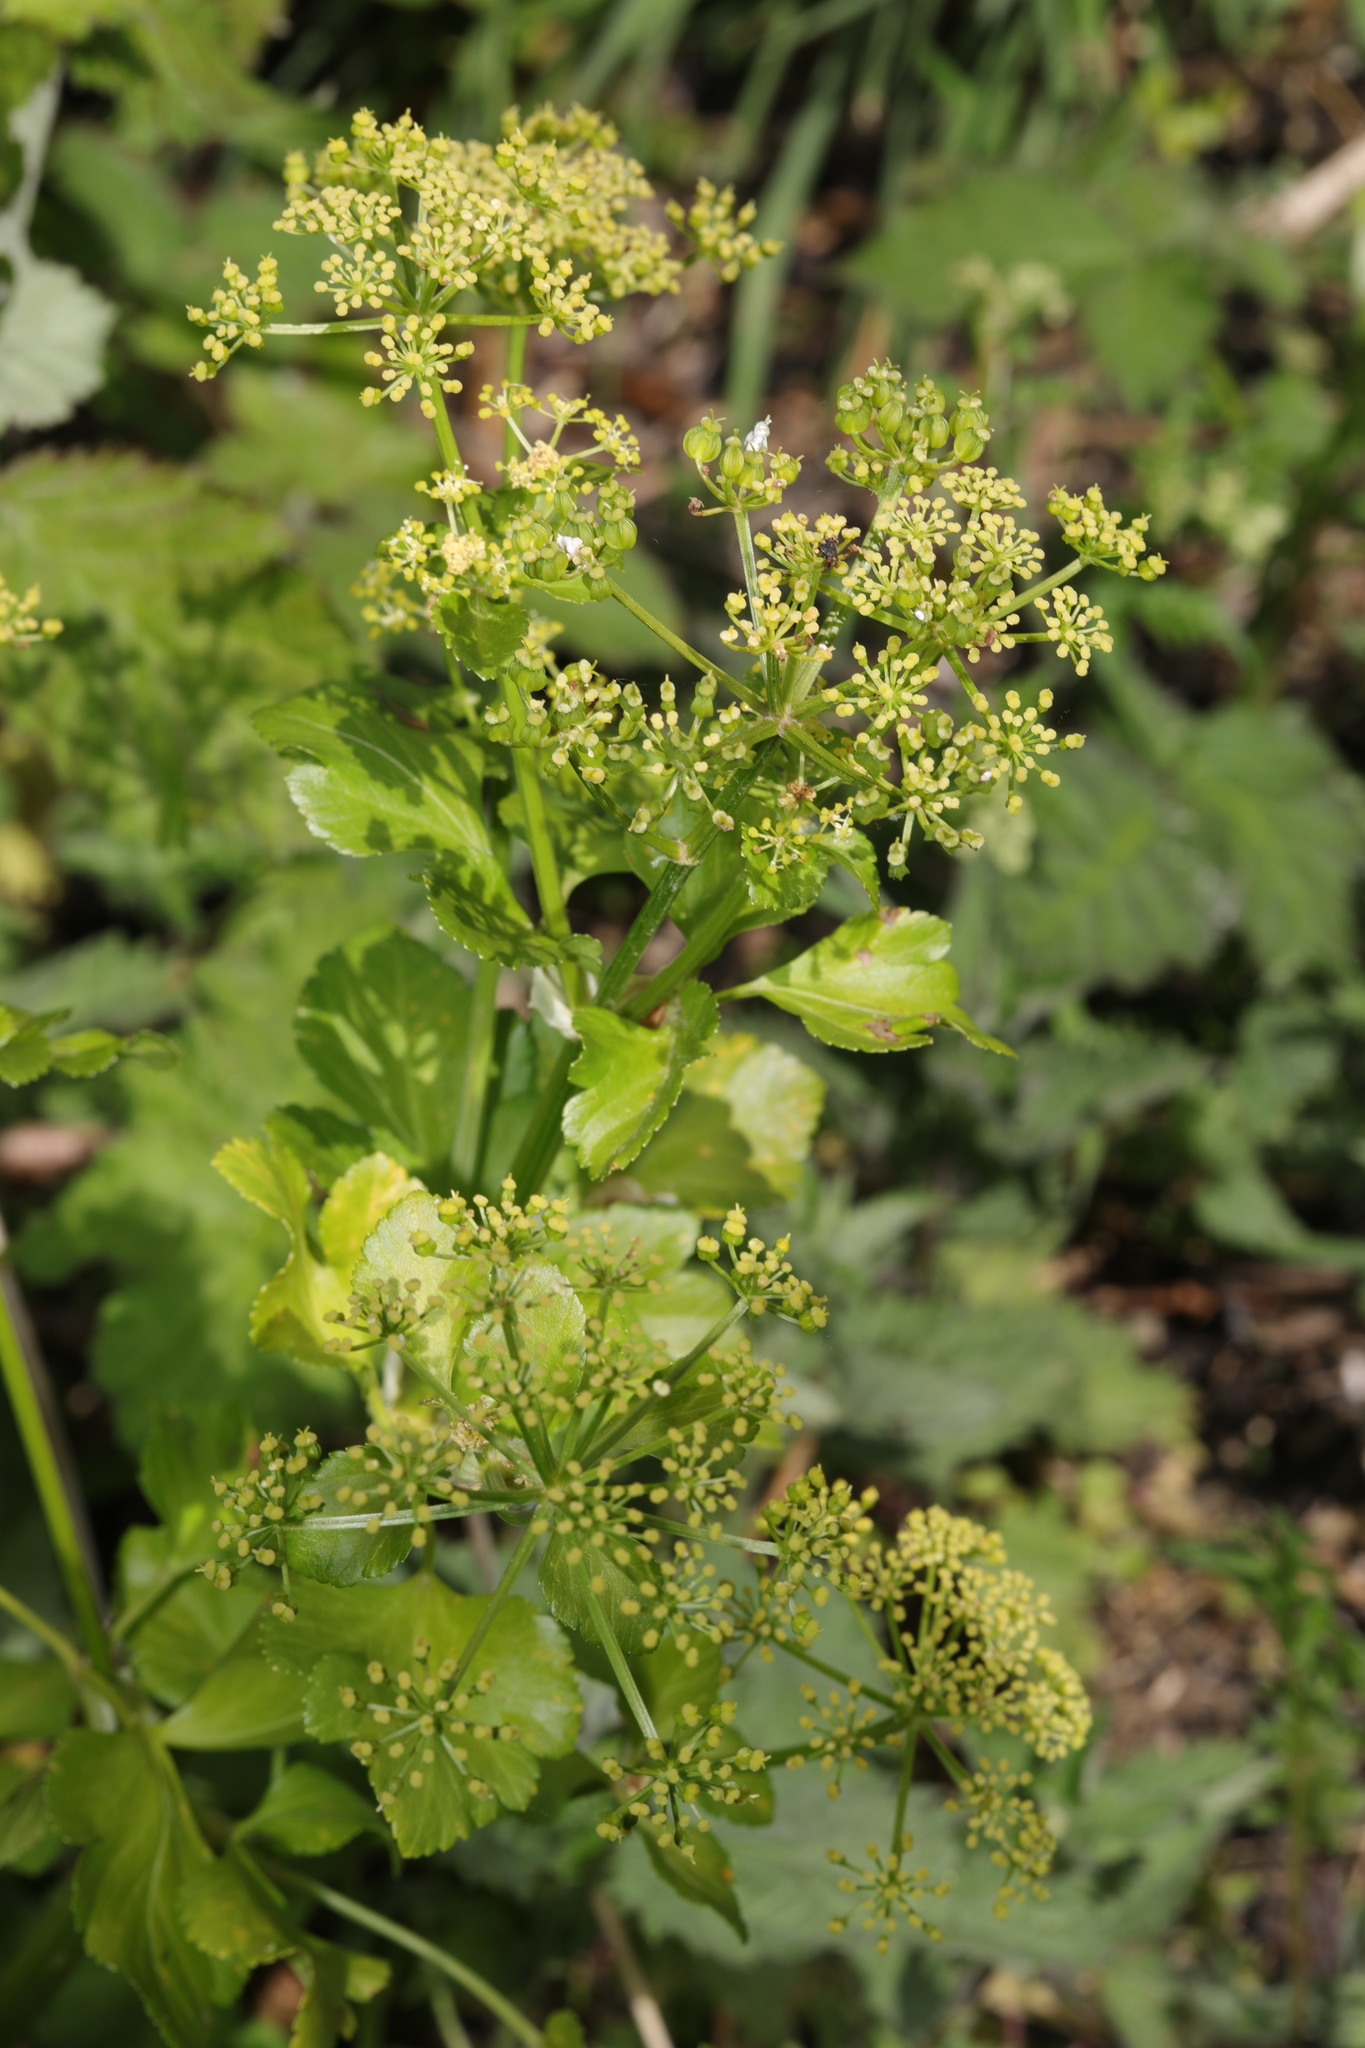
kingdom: Plantae
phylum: Tracheophyta
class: Magnoliopsida
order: Apiales
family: Apiaceae
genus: Smyrnium
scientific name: Smyrnium olusatrum
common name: Alexanders
